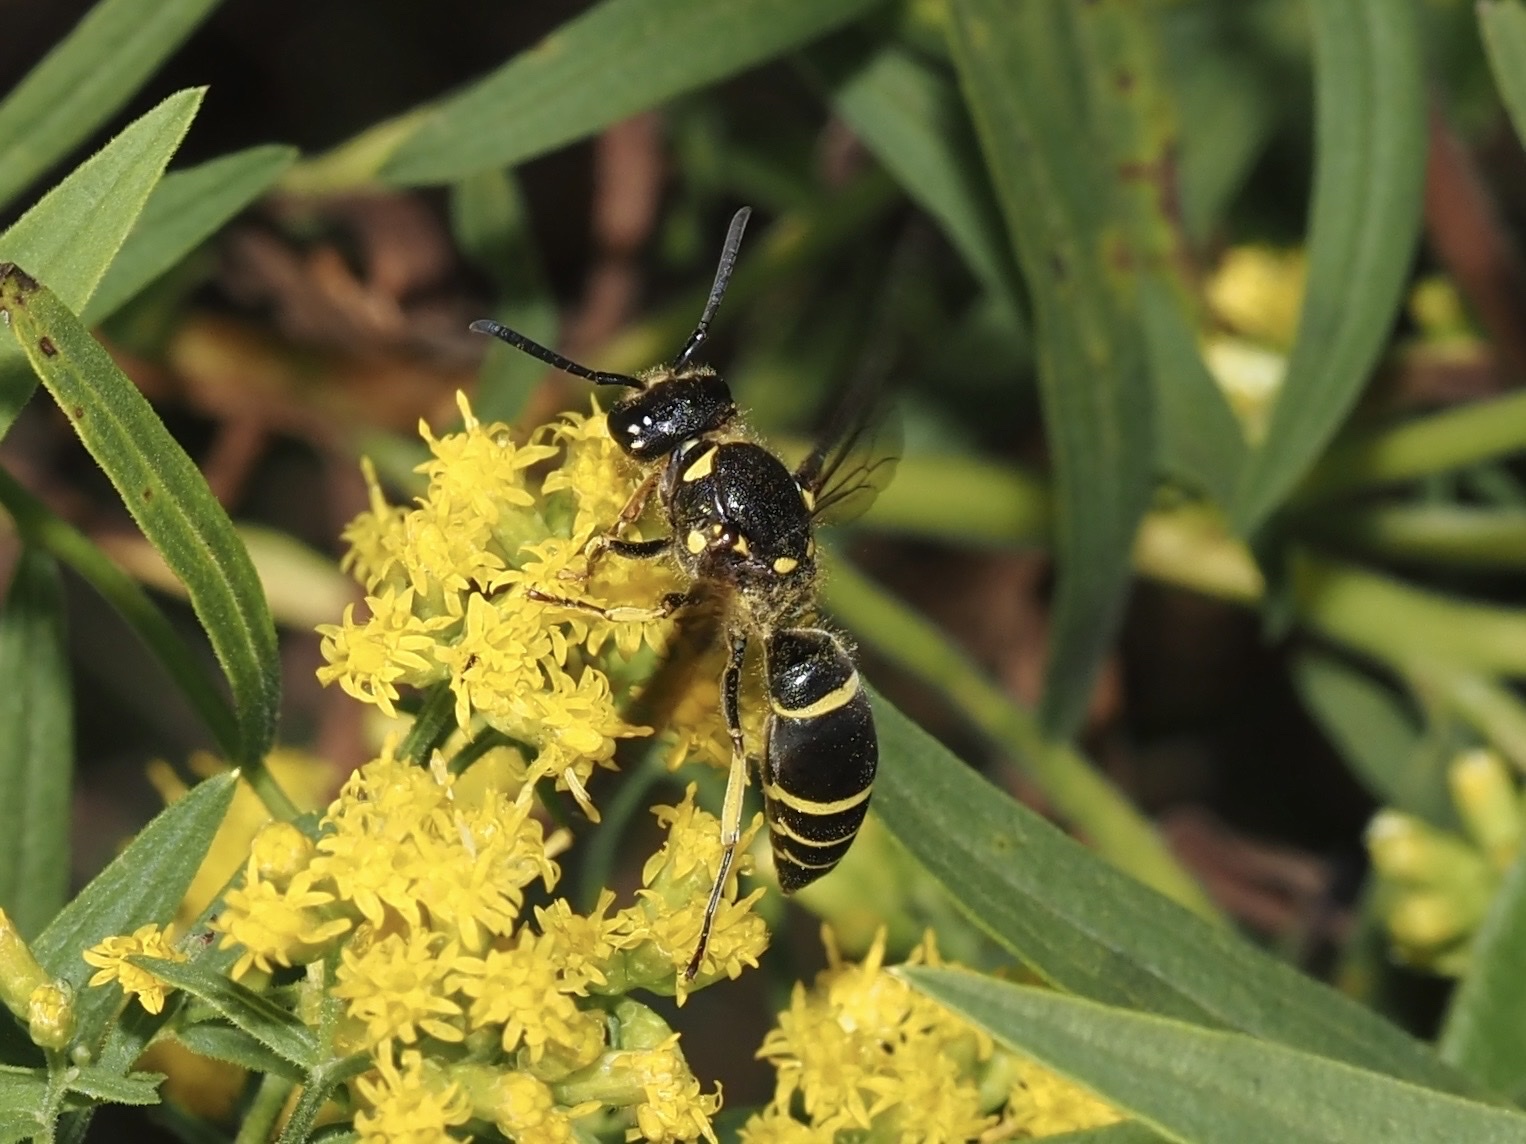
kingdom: Animalia
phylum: Arthropoda
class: Insecta
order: Hymenoptera
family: Vespidae
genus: Ancistrocerus
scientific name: Ancistrocerus
